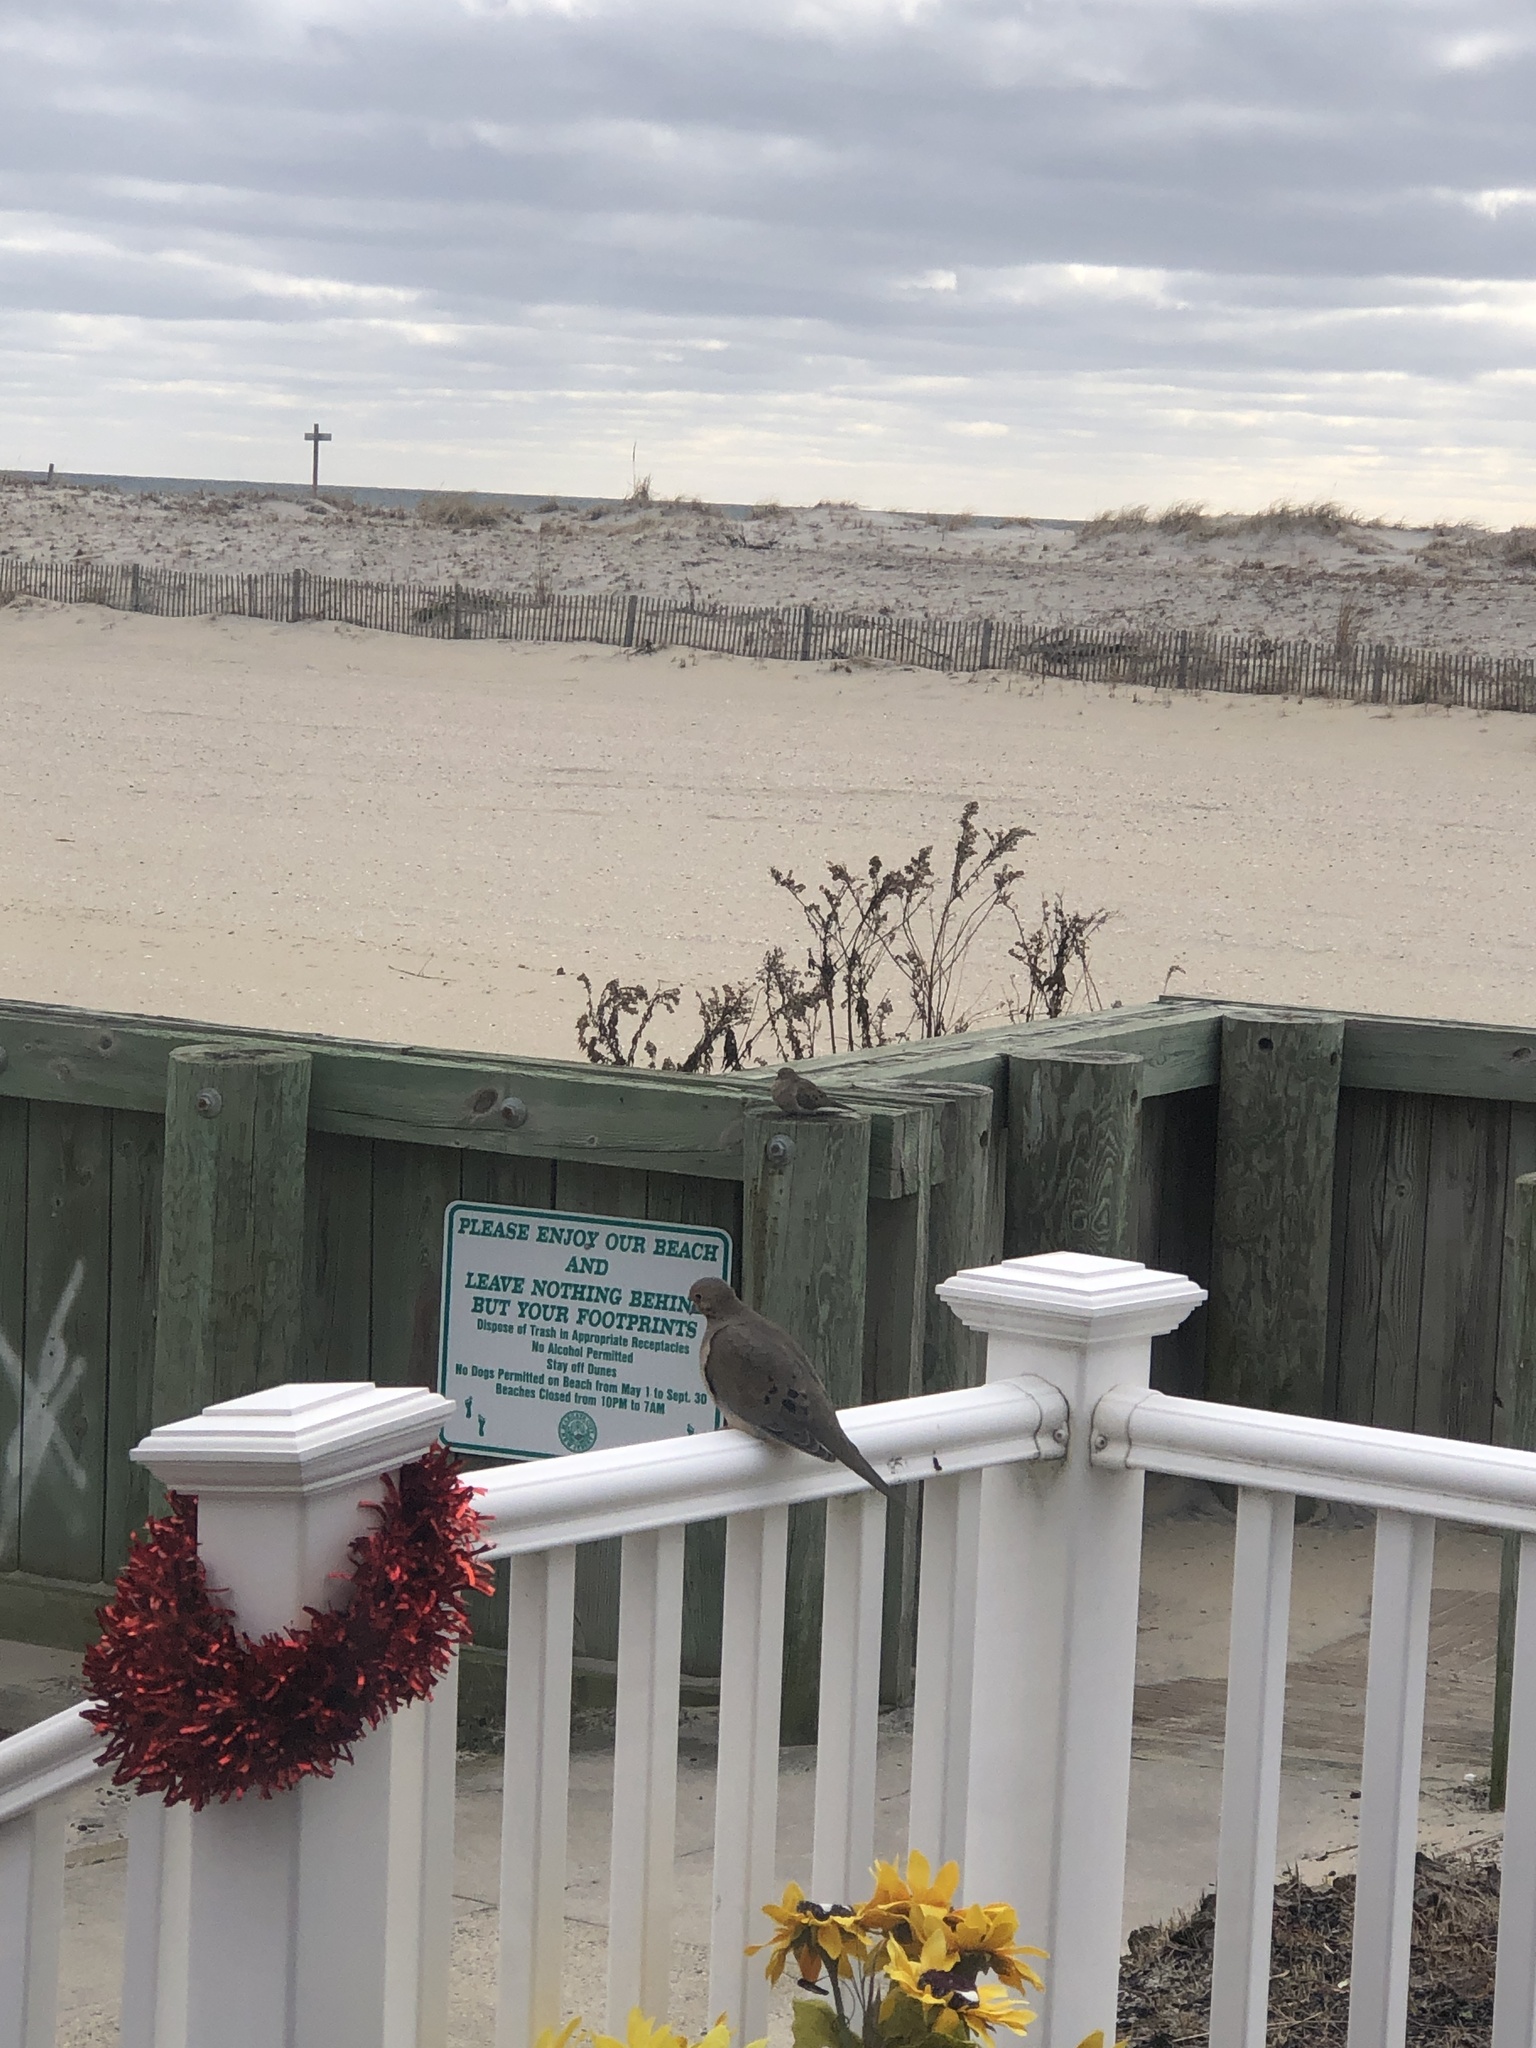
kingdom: Animalia
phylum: Chordata
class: Aves
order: Columbiformes
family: Columbidae
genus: Zenaida
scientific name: Zenaida macroura
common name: Mourning dove
